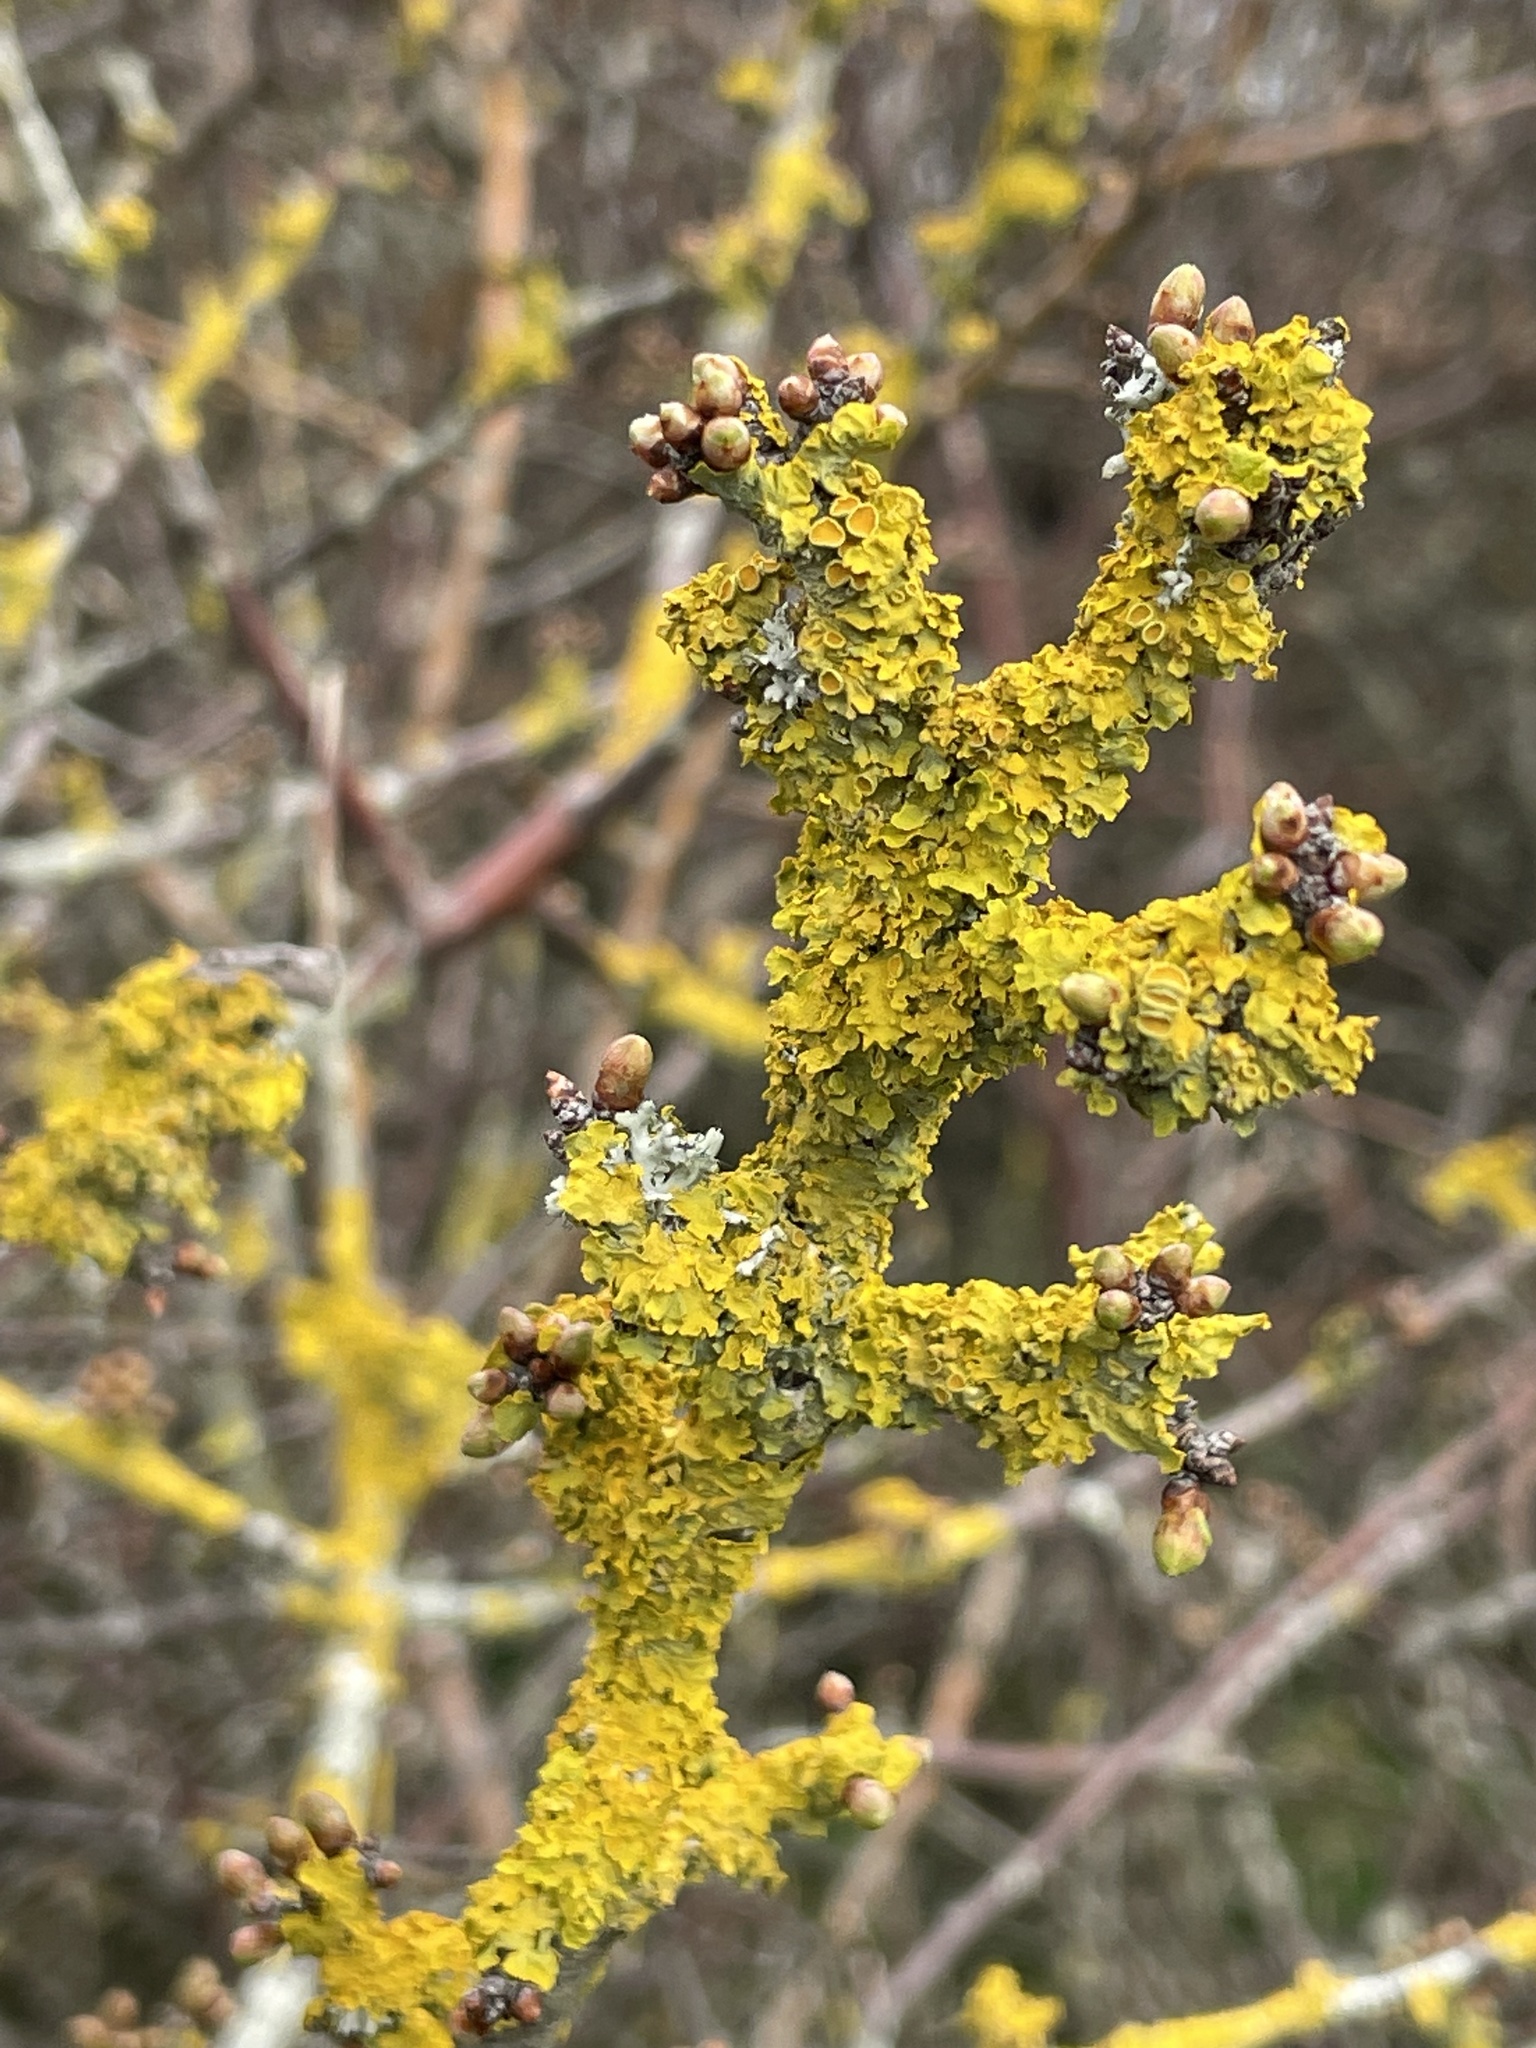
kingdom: Fungi
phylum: Ascomycota
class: Lecanoromycetes
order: Teloschistales
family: Teloschistaceae
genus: Xanthoria
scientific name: Xanthoria parietina
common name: Common orange lichen
